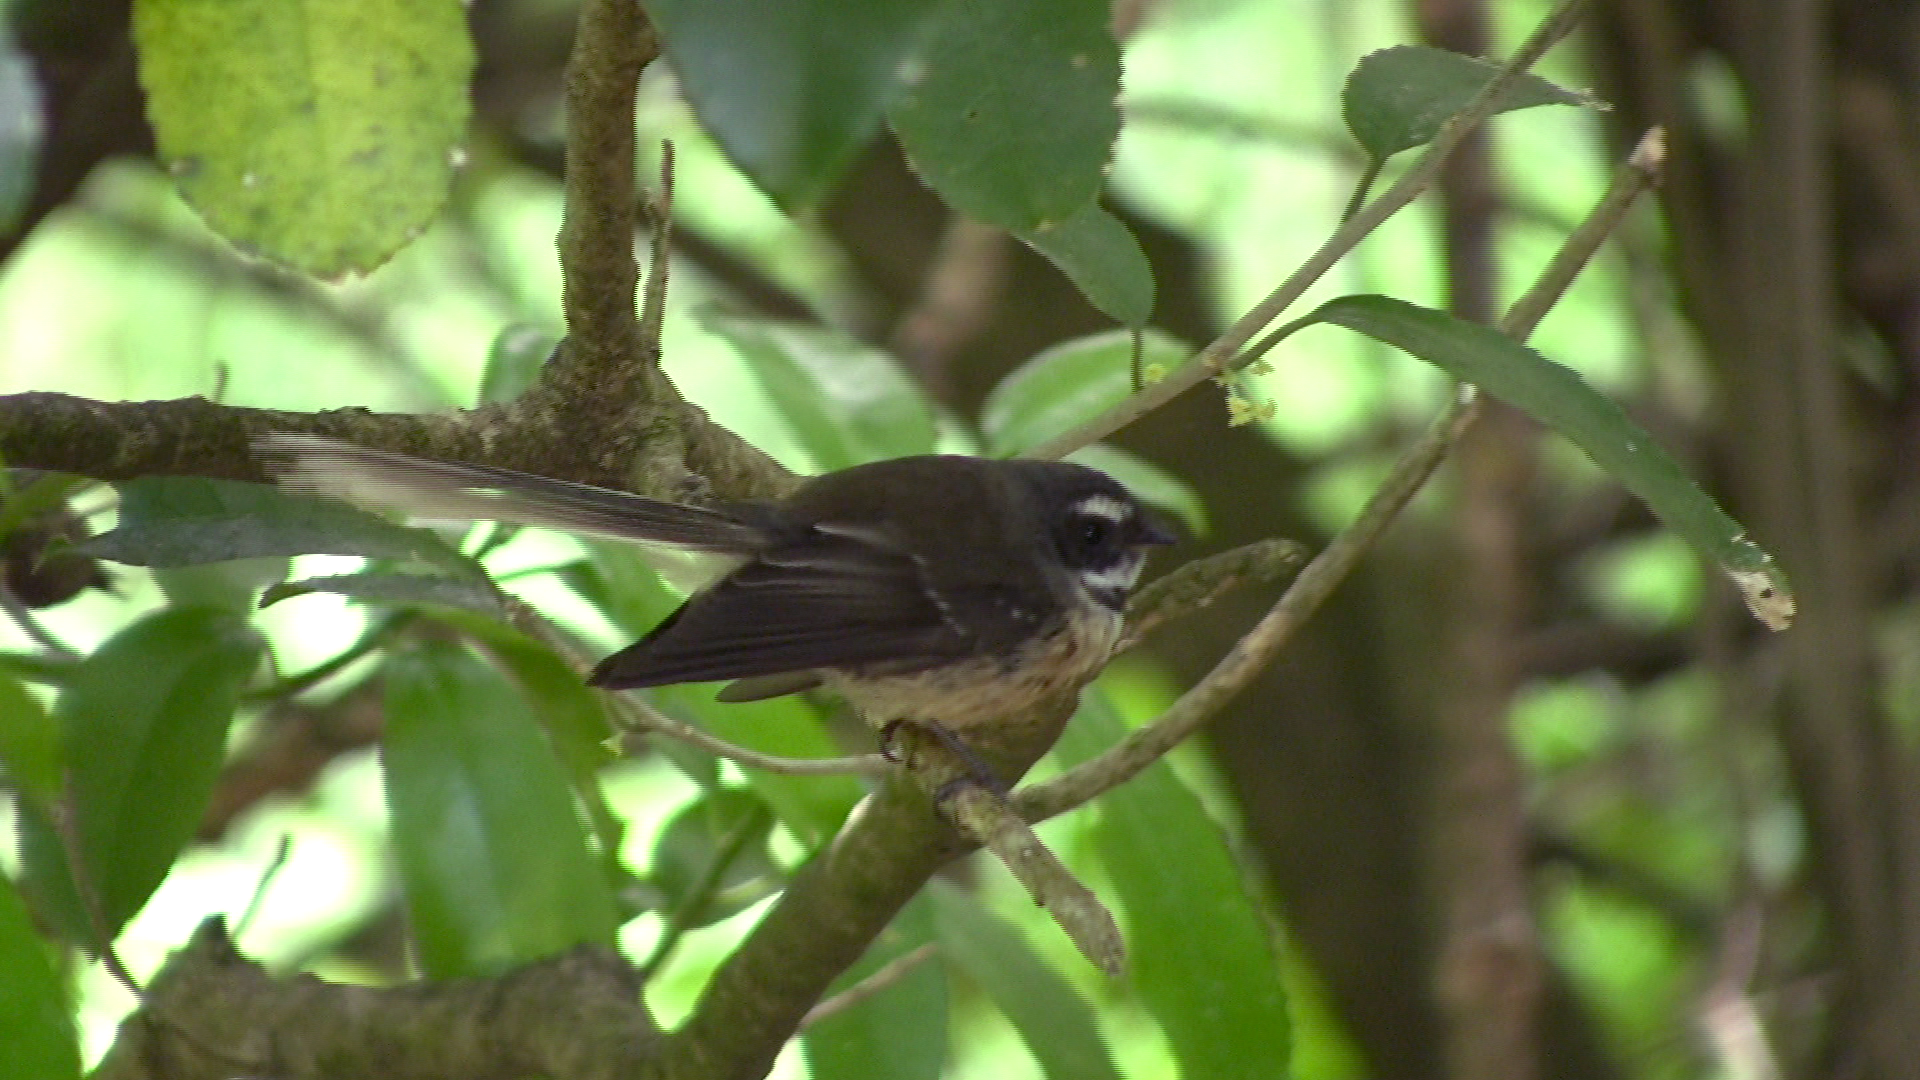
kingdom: Animalia
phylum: Chordata
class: Aves
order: Passeriformes
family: Rhipiduridae
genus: Rhipidura
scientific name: Rhipidura fuliginosa
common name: New zealand fantail
